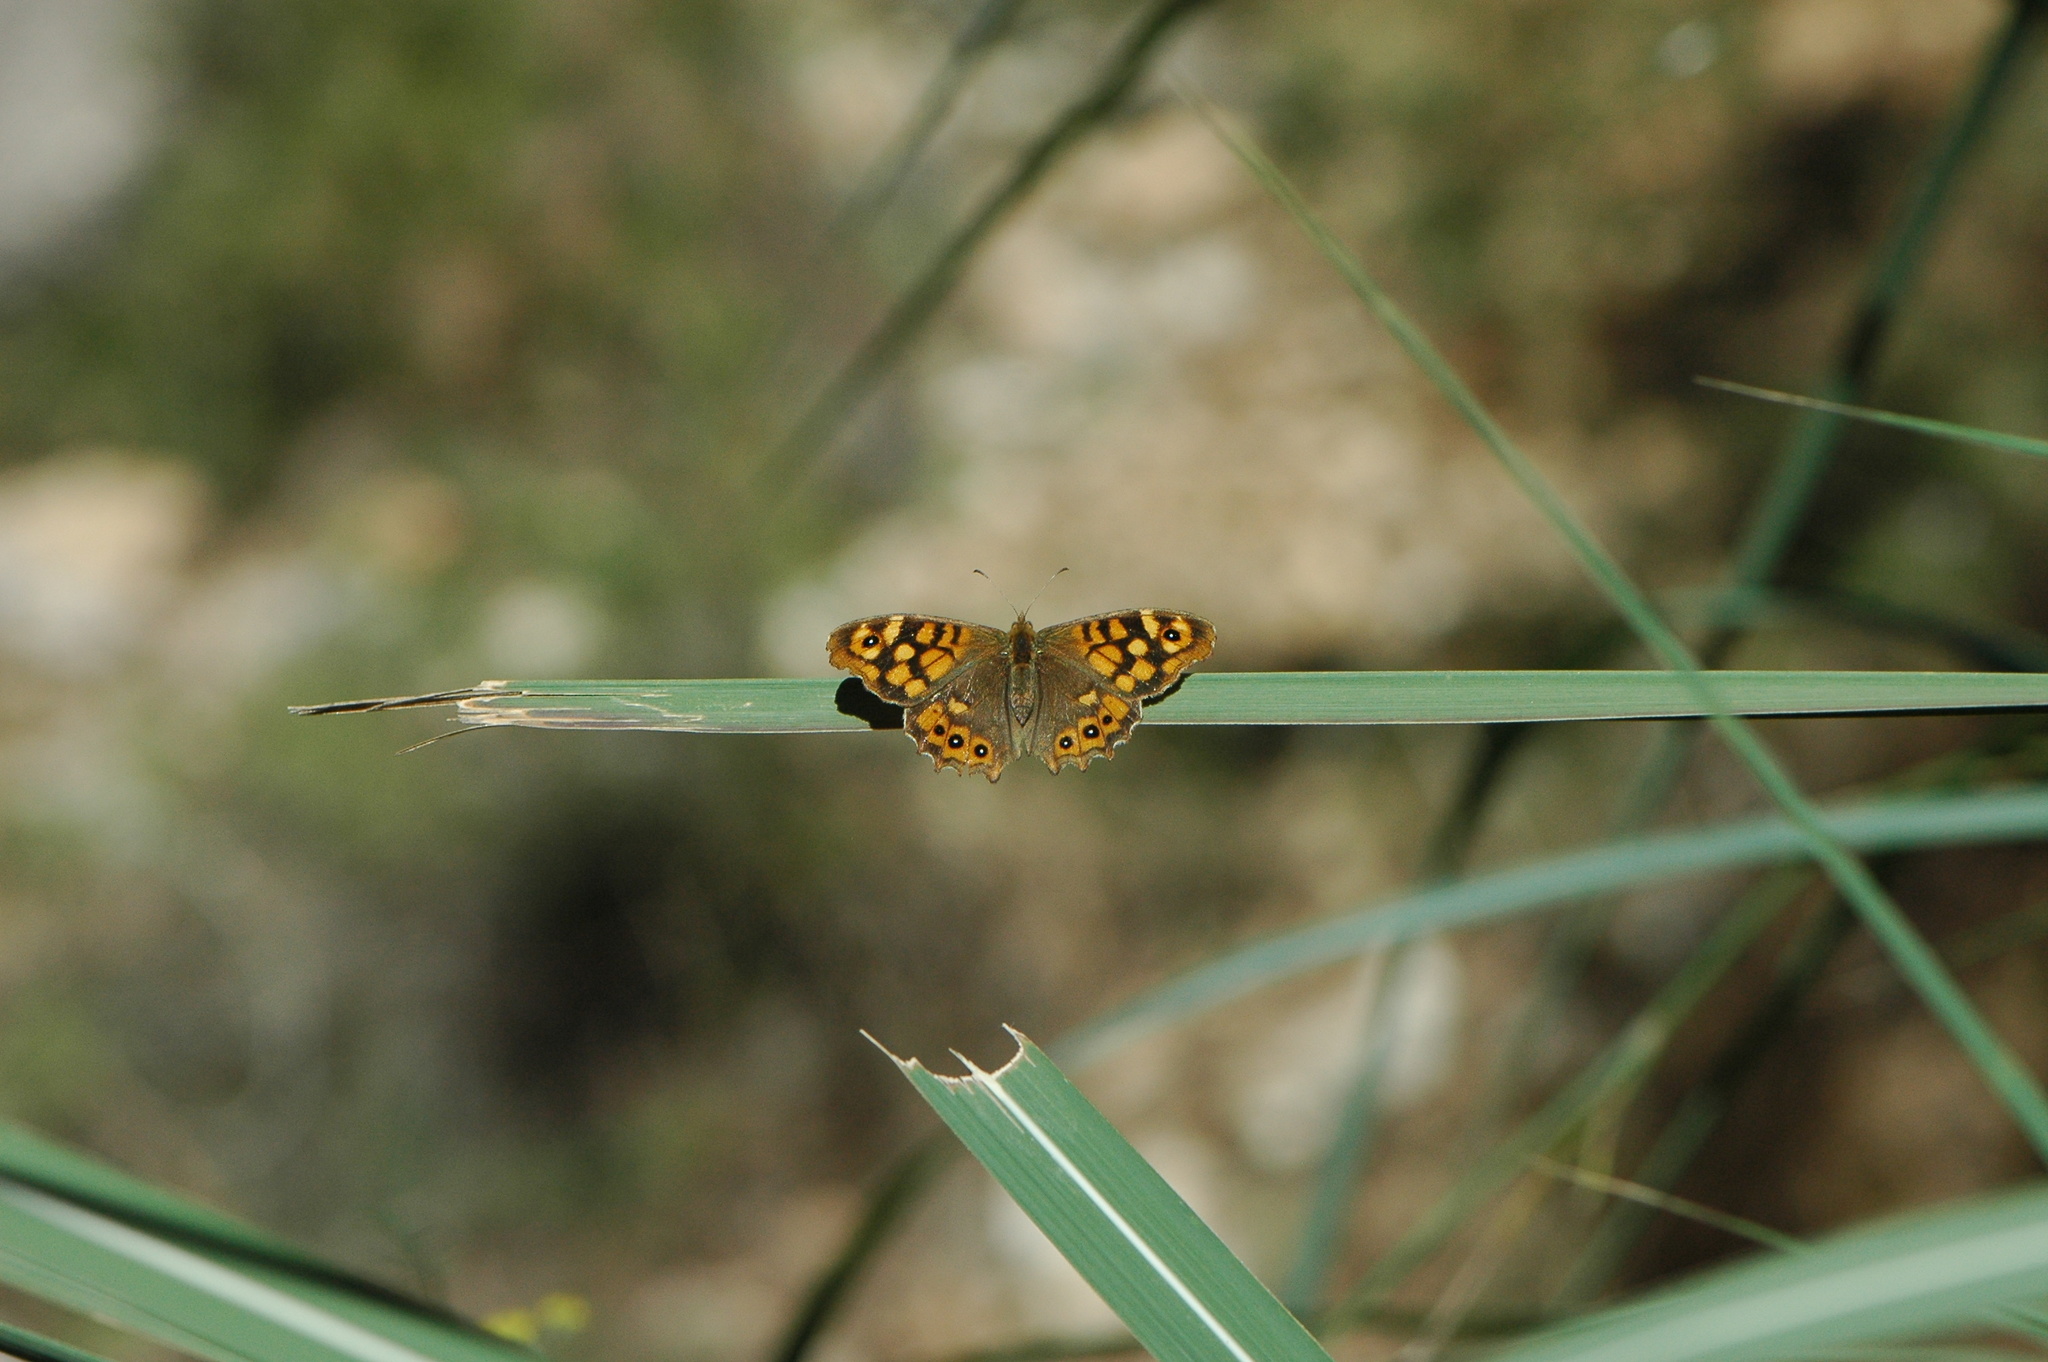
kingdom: Animalia
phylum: Arthropoda
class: Insecta
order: Lepidoptera
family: Nymphalidae
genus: Pararge
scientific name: Pararge aegeria
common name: Speckled wood
